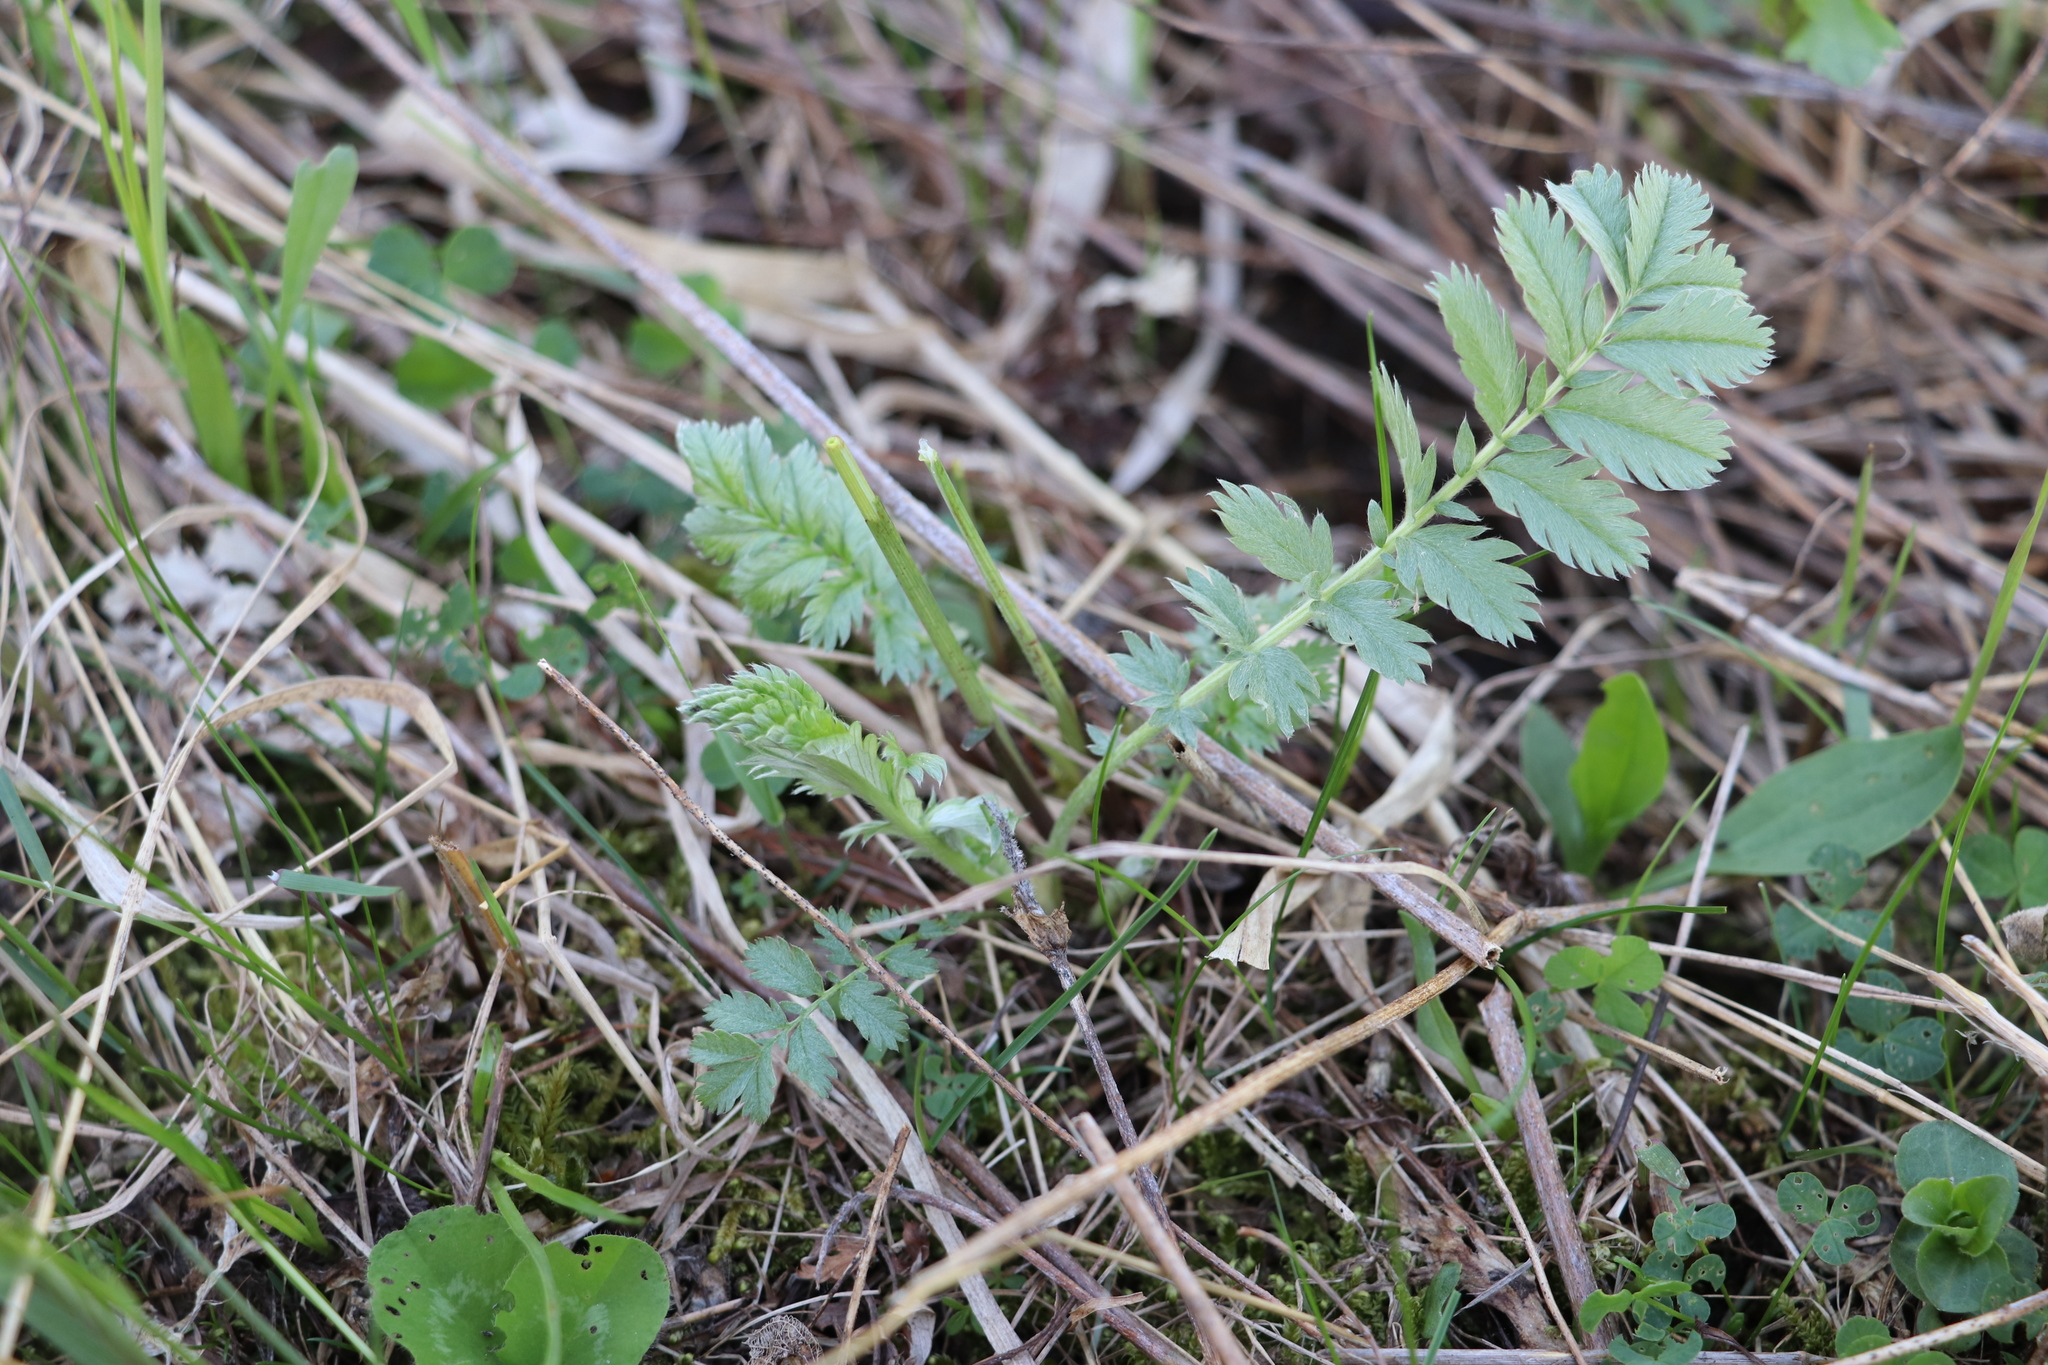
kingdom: Plantae
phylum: Tracheophyta
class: Magnoliopsida
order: Rosales
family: Rosaceae
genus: Argentina
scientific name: Argentina anserina
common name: Common silverweed
